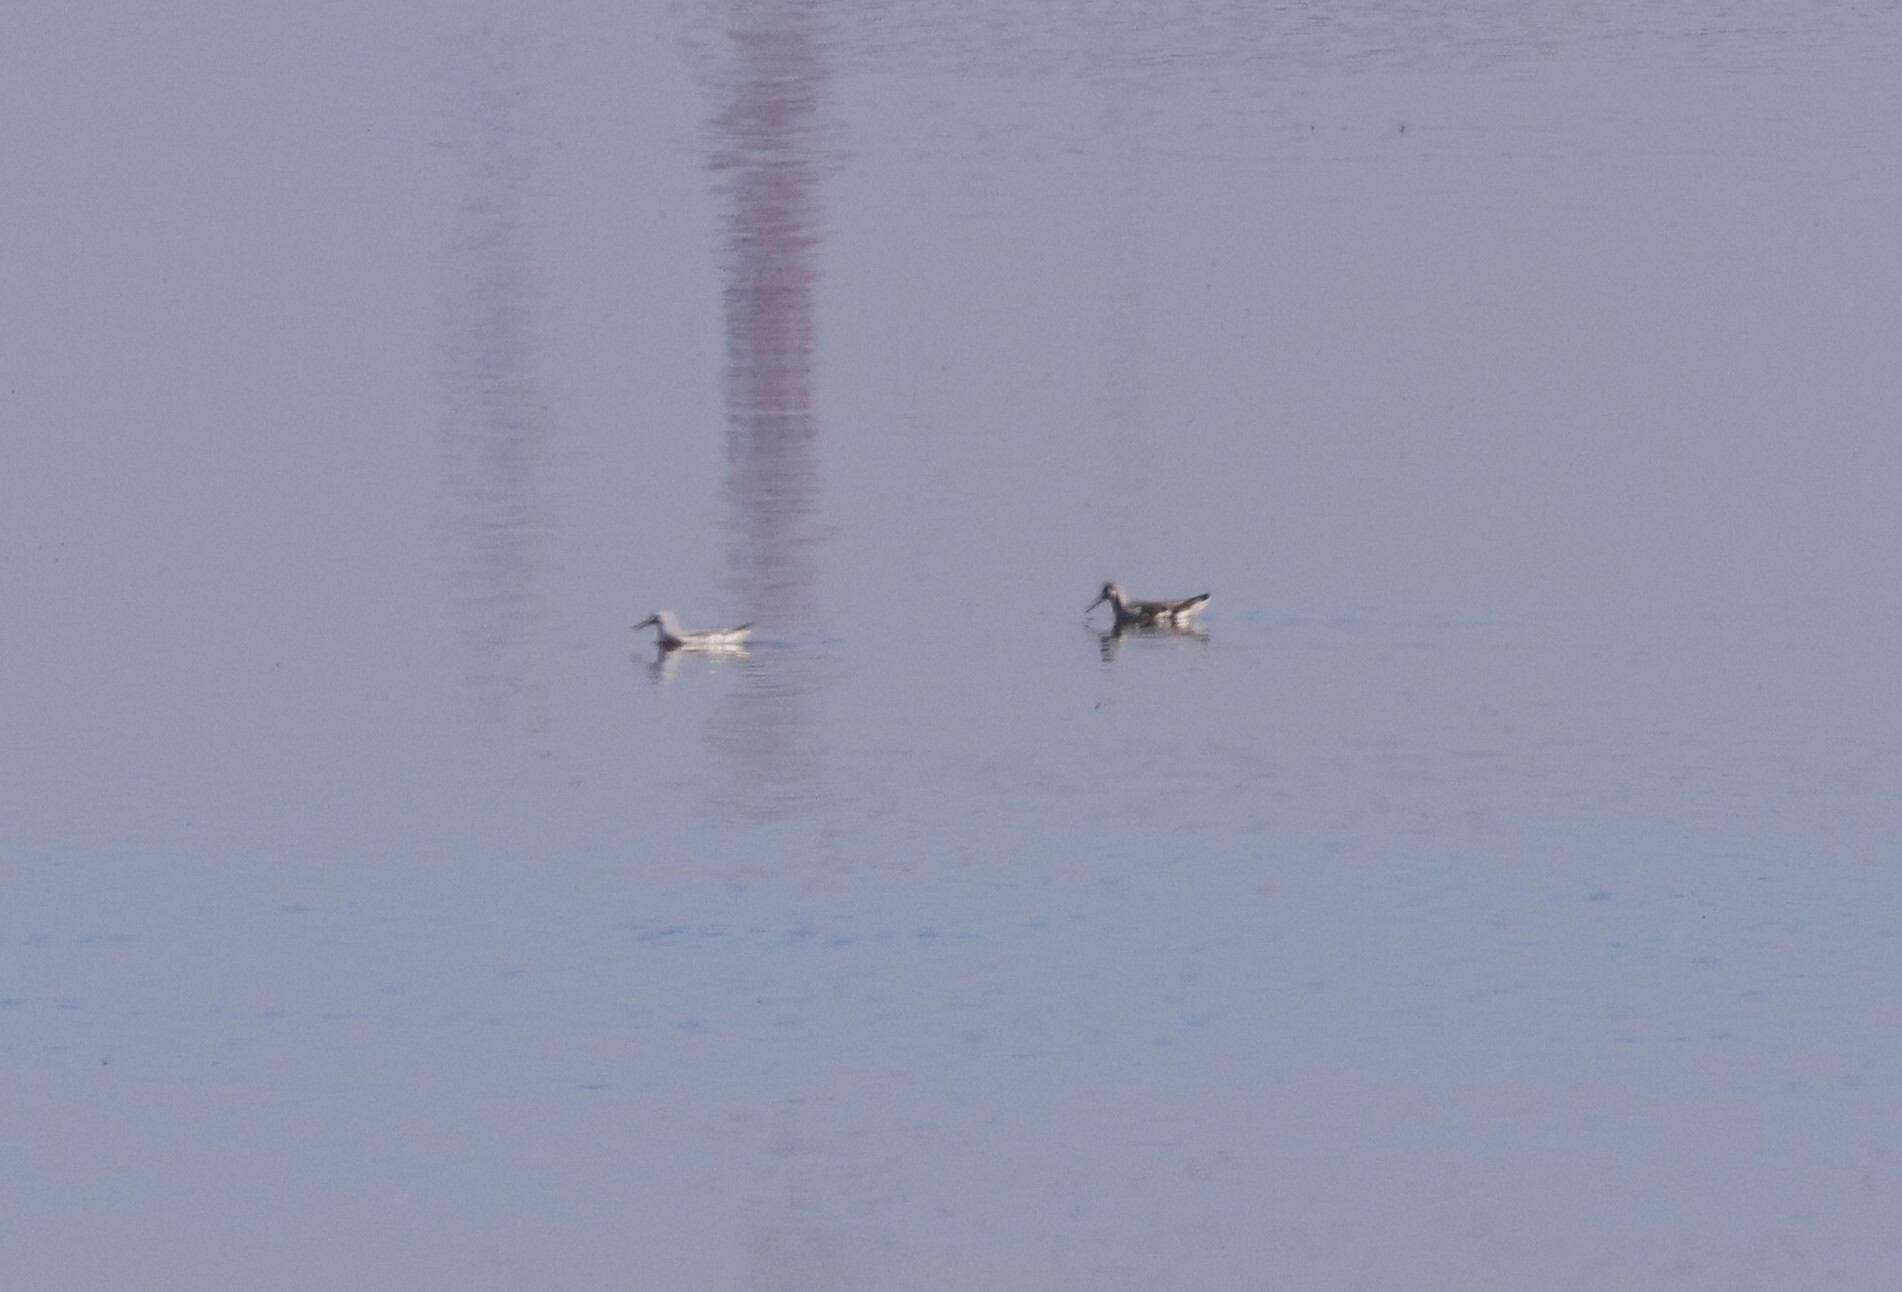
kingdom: Animalia
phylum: Chordata
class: Aves
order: Charadriiformes
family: Scolopacidae
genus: Phalaropus
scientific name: Phalaropus tricolor
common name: Wilson's phalarope
